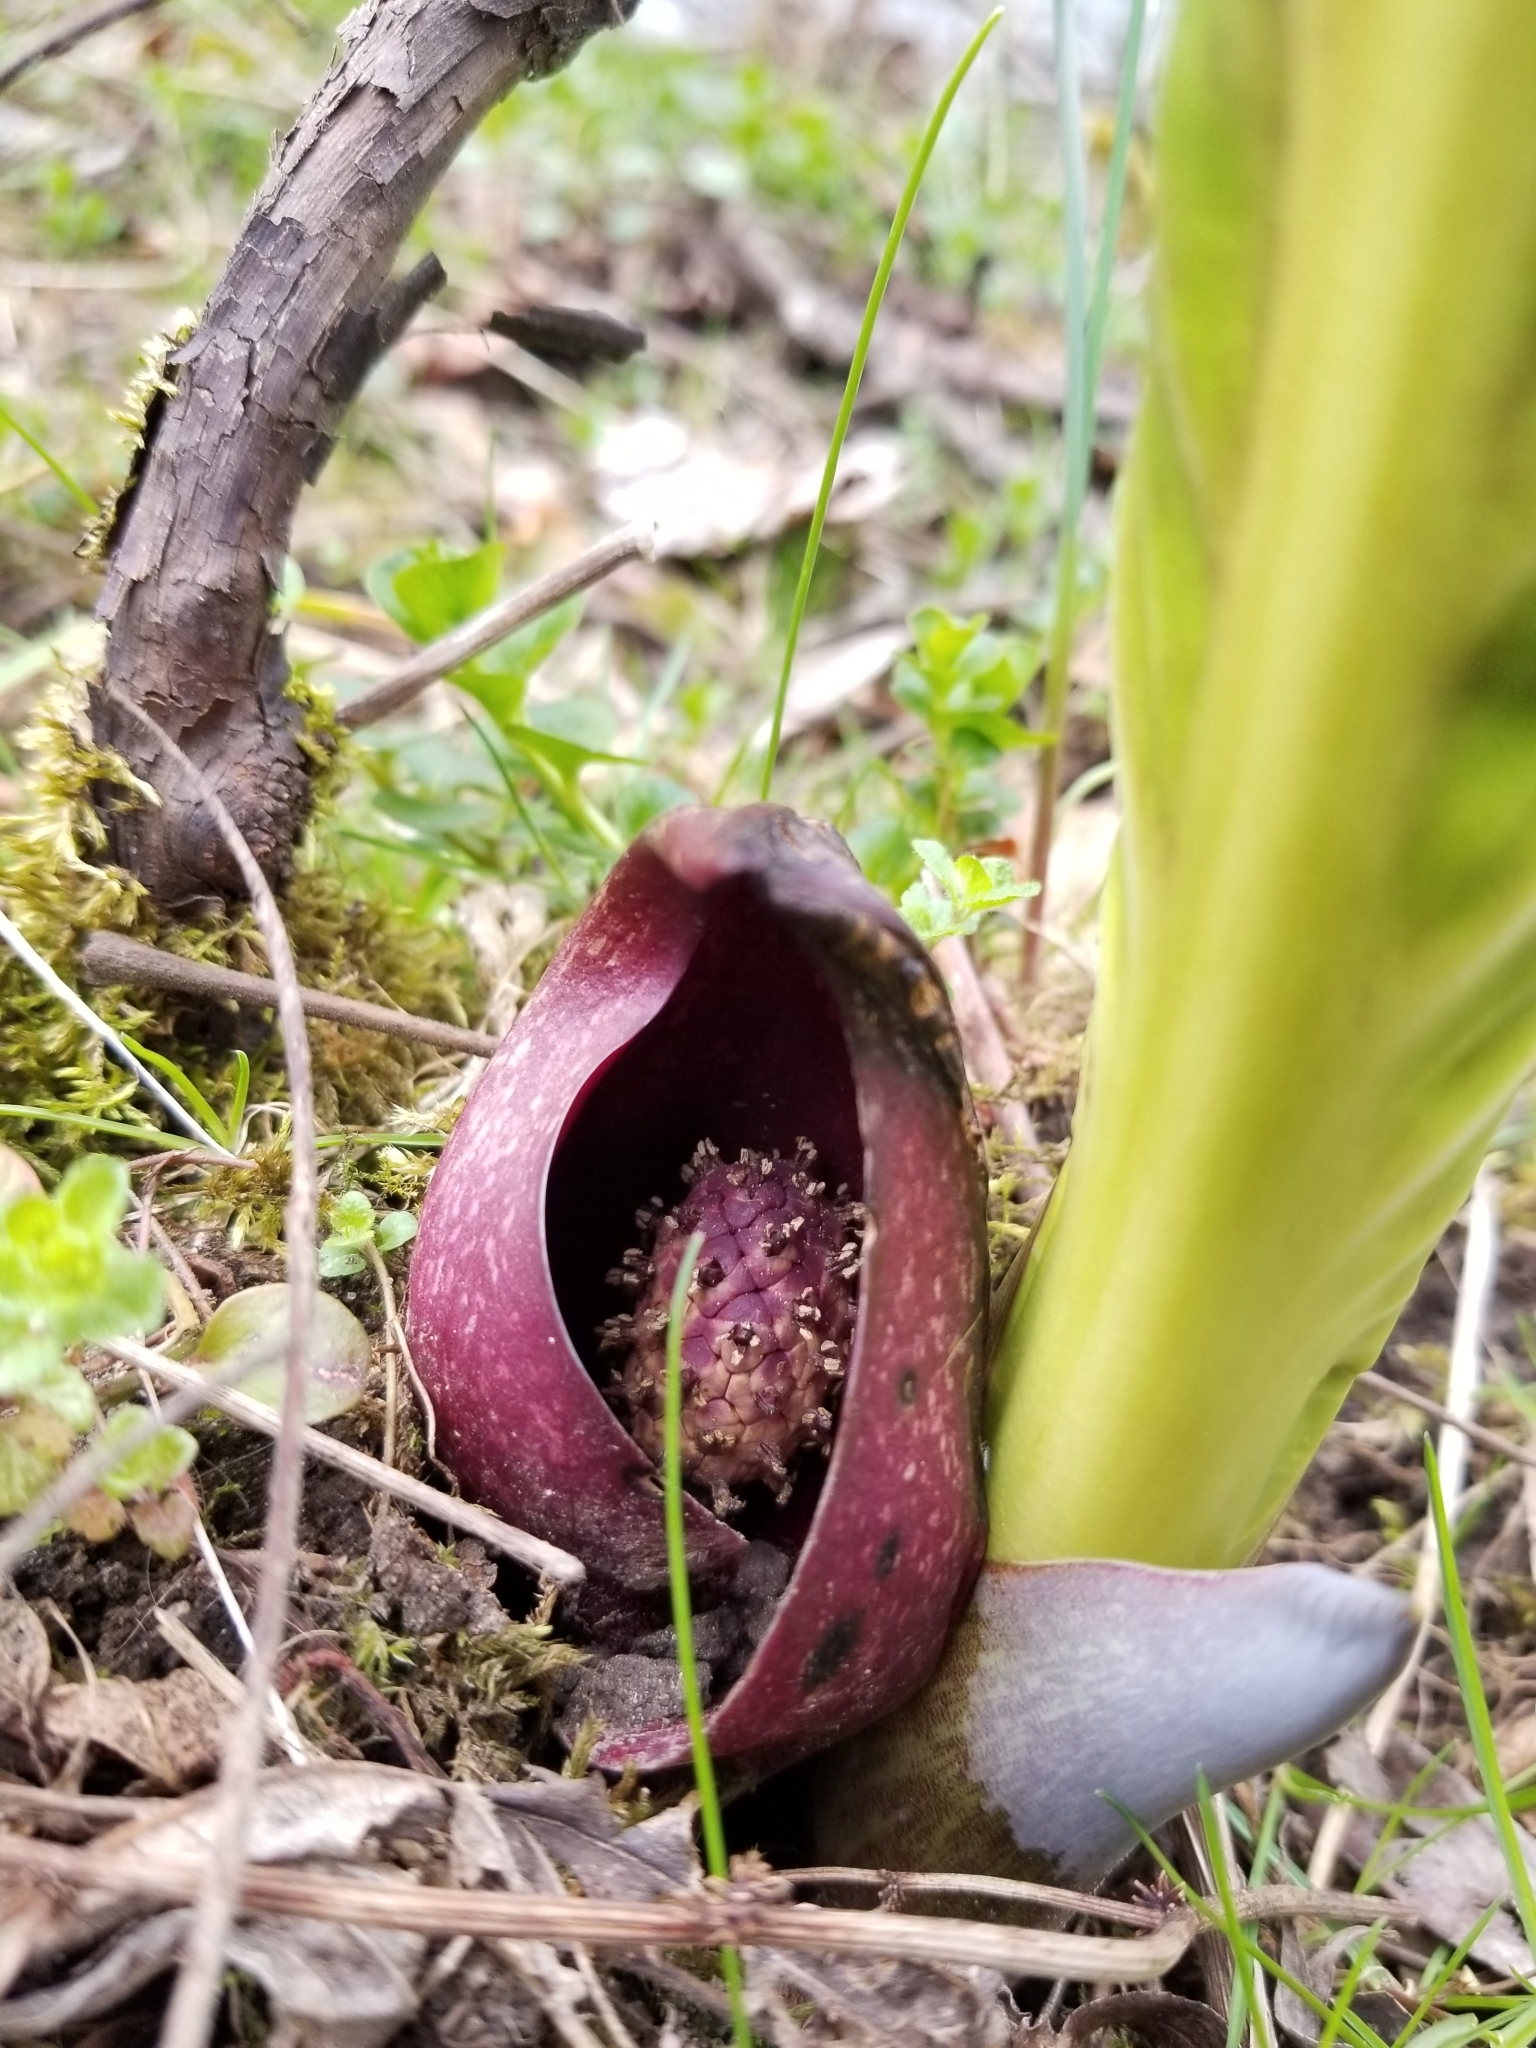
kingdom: Plantae
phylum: Tracheophyta
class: Liliopsida
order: Alismatales
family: Araceae
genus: Symplocarpus
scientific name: Symplocarpus foetidus
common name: Eastern skunk cabbage
